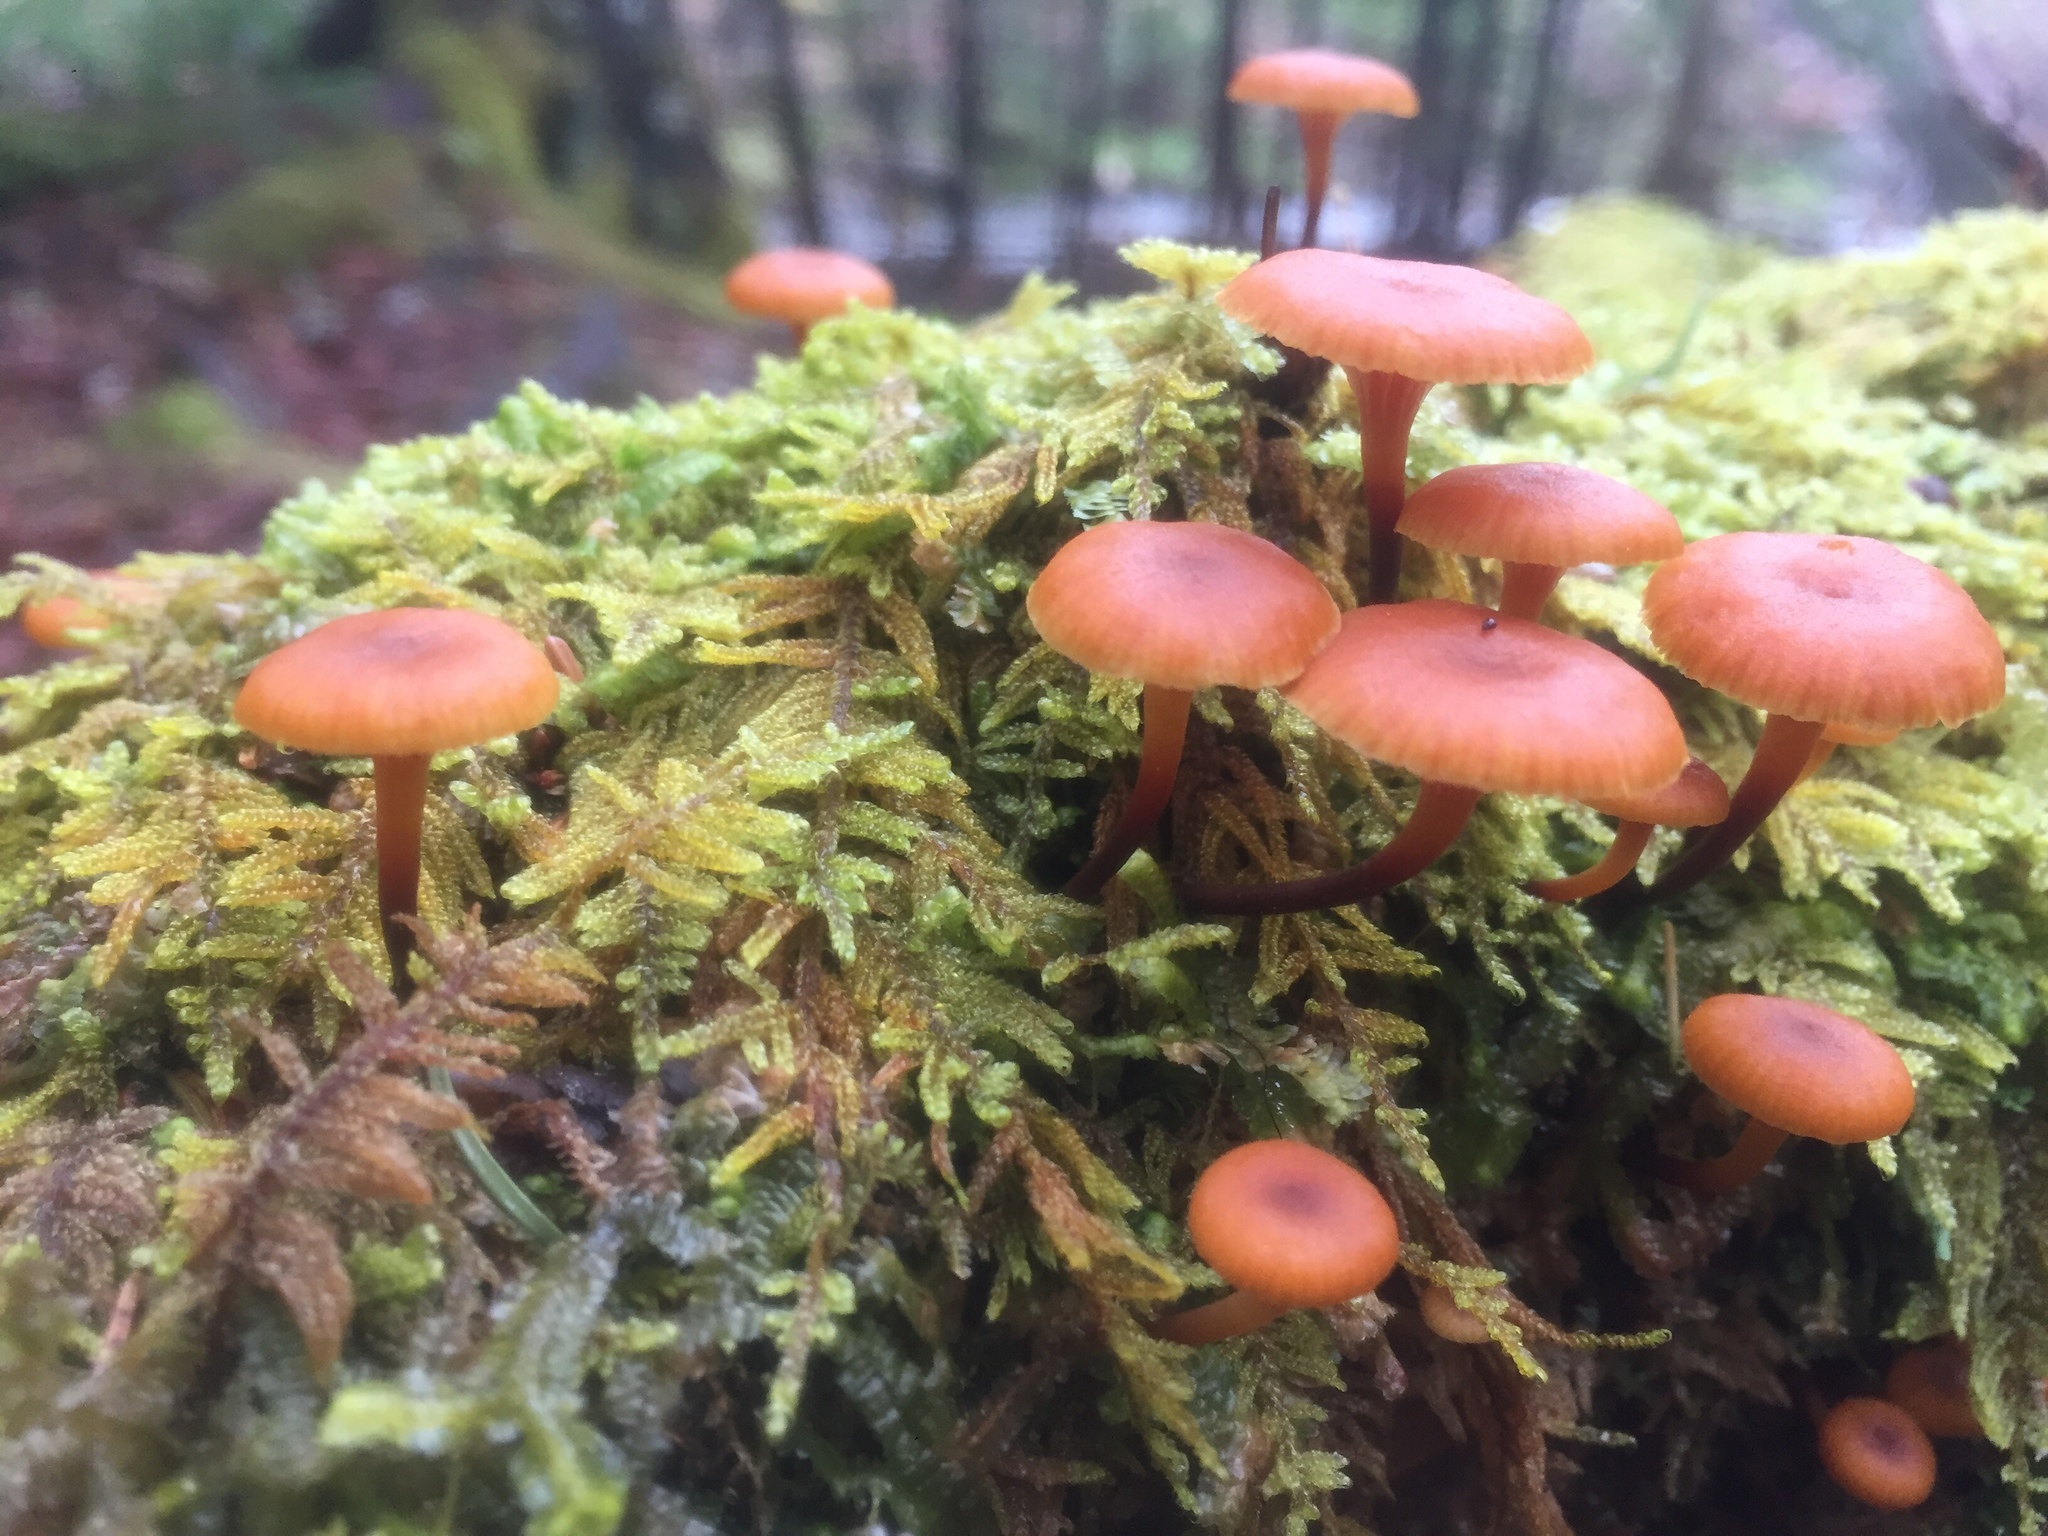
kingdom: Fungi
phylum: Basidiomycota
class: Agaricomycetes
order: Agaricales
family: Mycenaceae
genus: Xeromphalina
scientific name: Xeromphalina campanella
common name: Pinewood gingertail
